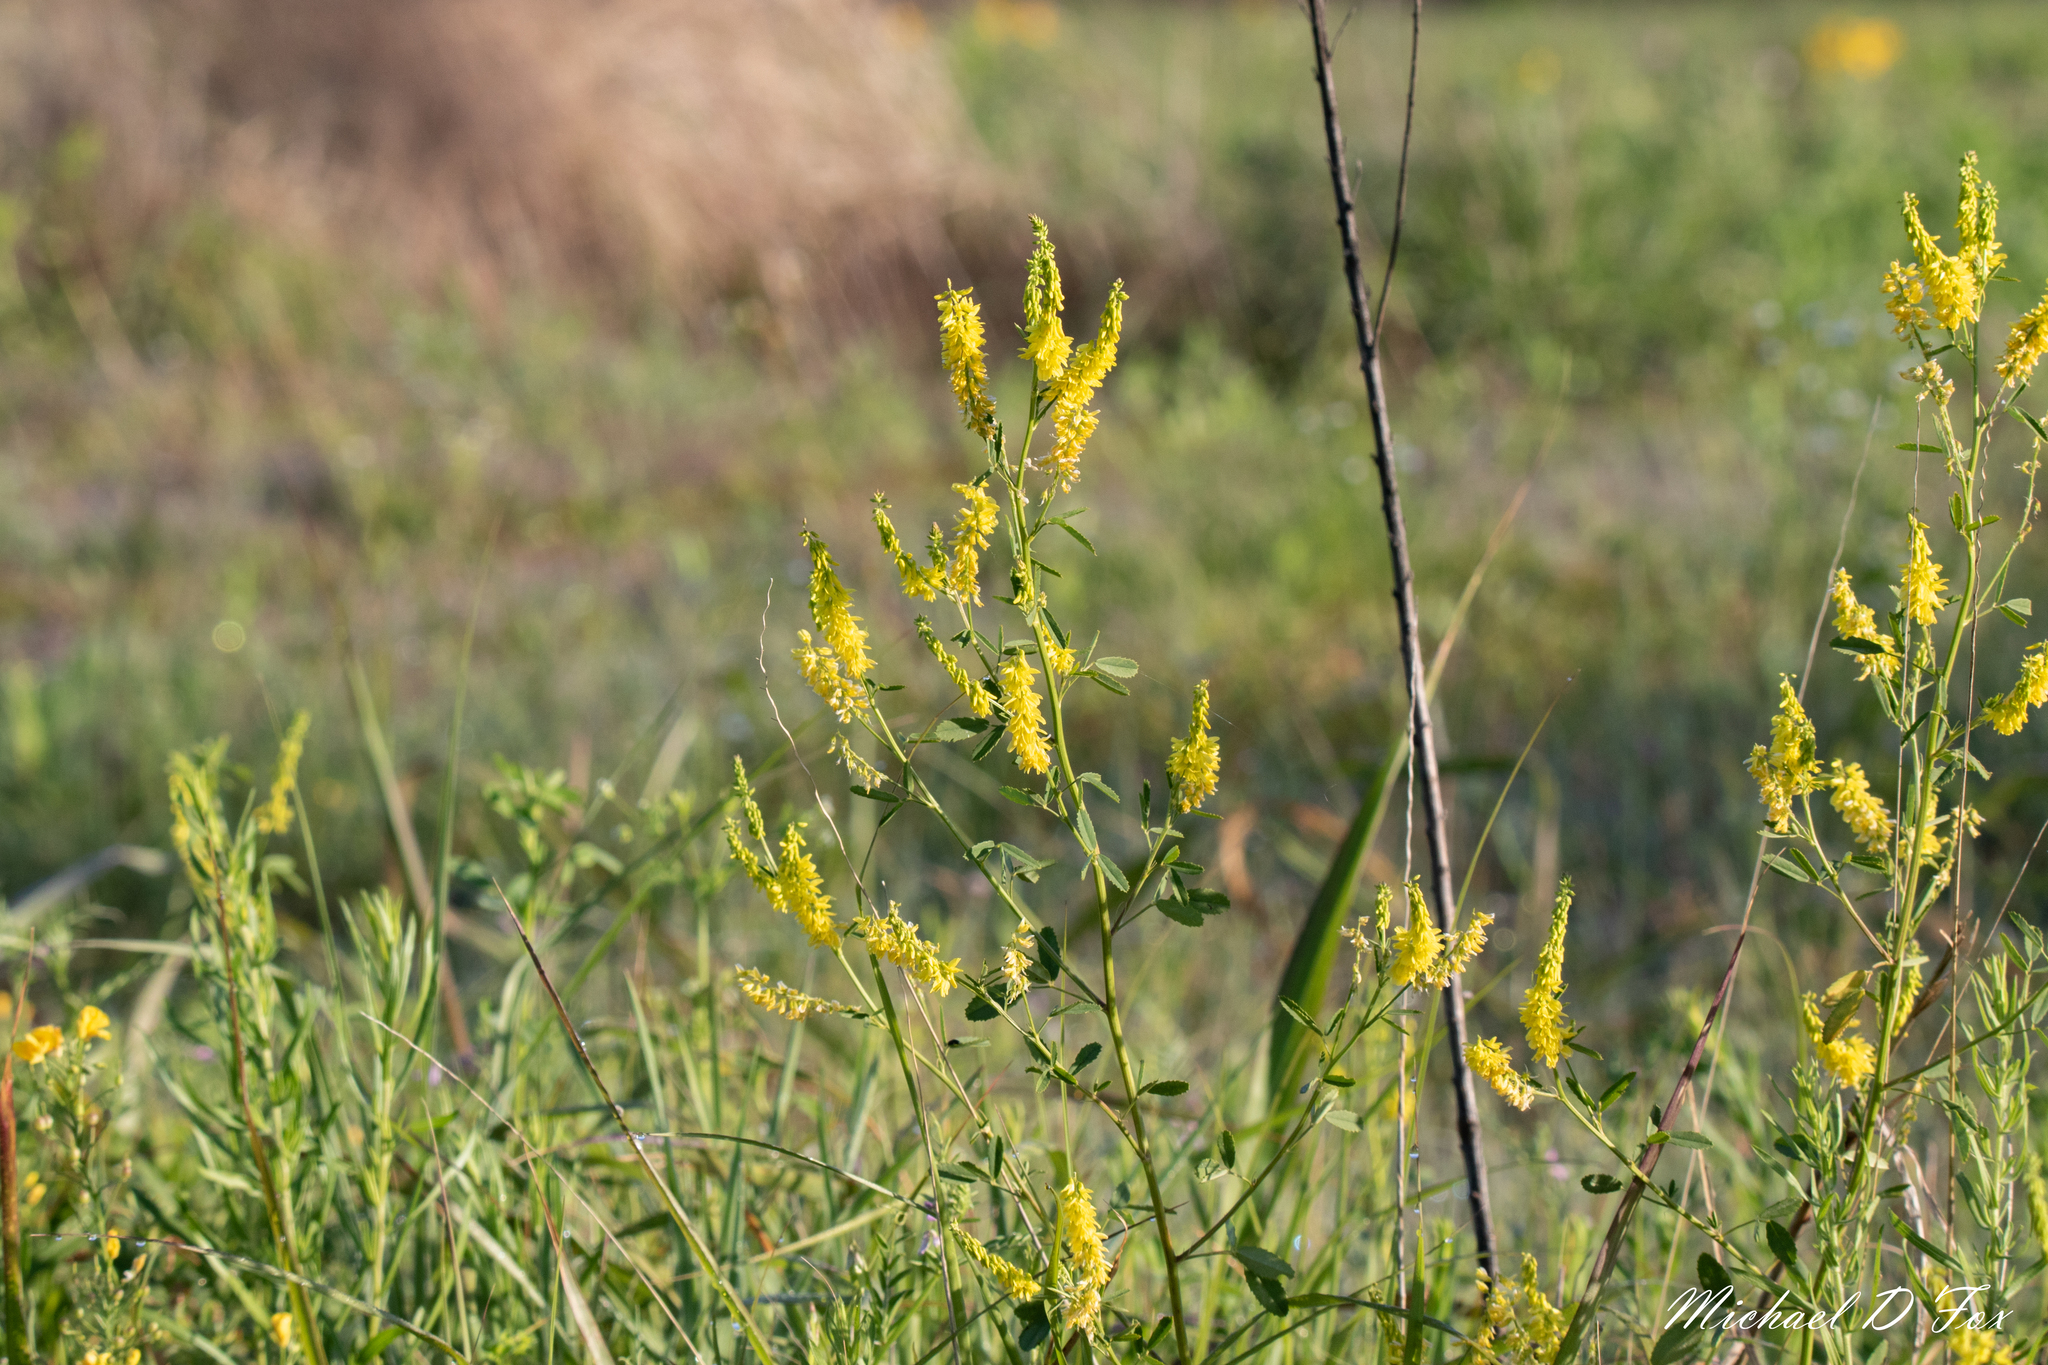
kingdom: Plantae
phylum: Tracheophyta
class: Magnoliopsida
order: Fabales
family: Fabaceae
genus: Melilotus
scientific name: Melilotus officinalis
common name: Sweetclover
